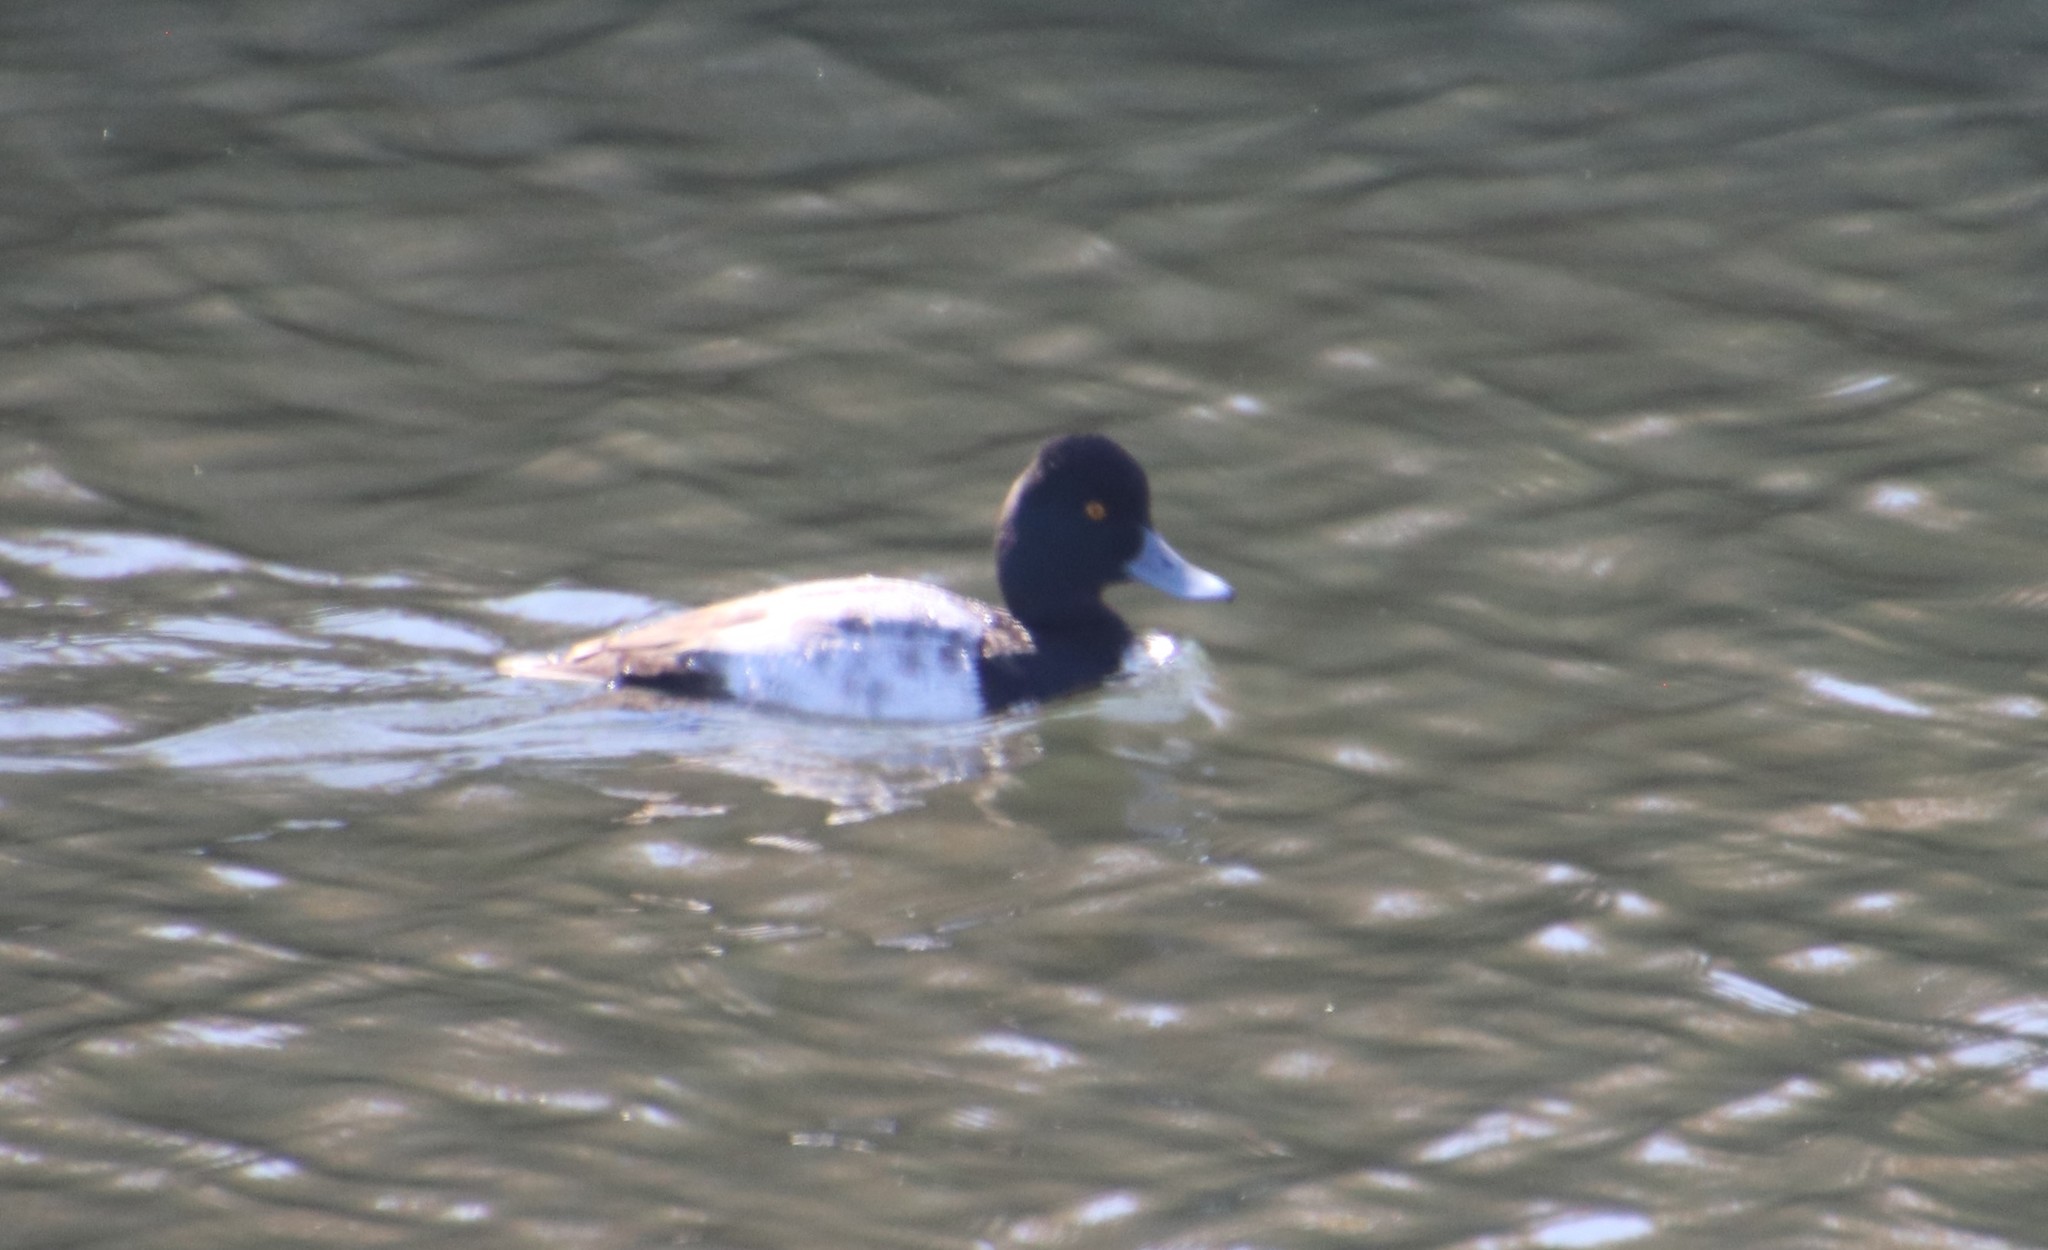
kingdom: Animalia
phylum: Chordata
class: Aves
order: Anseriformes
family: Anatidae
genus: Aythya
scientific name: Aythya affinis
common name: Lesser scaup
